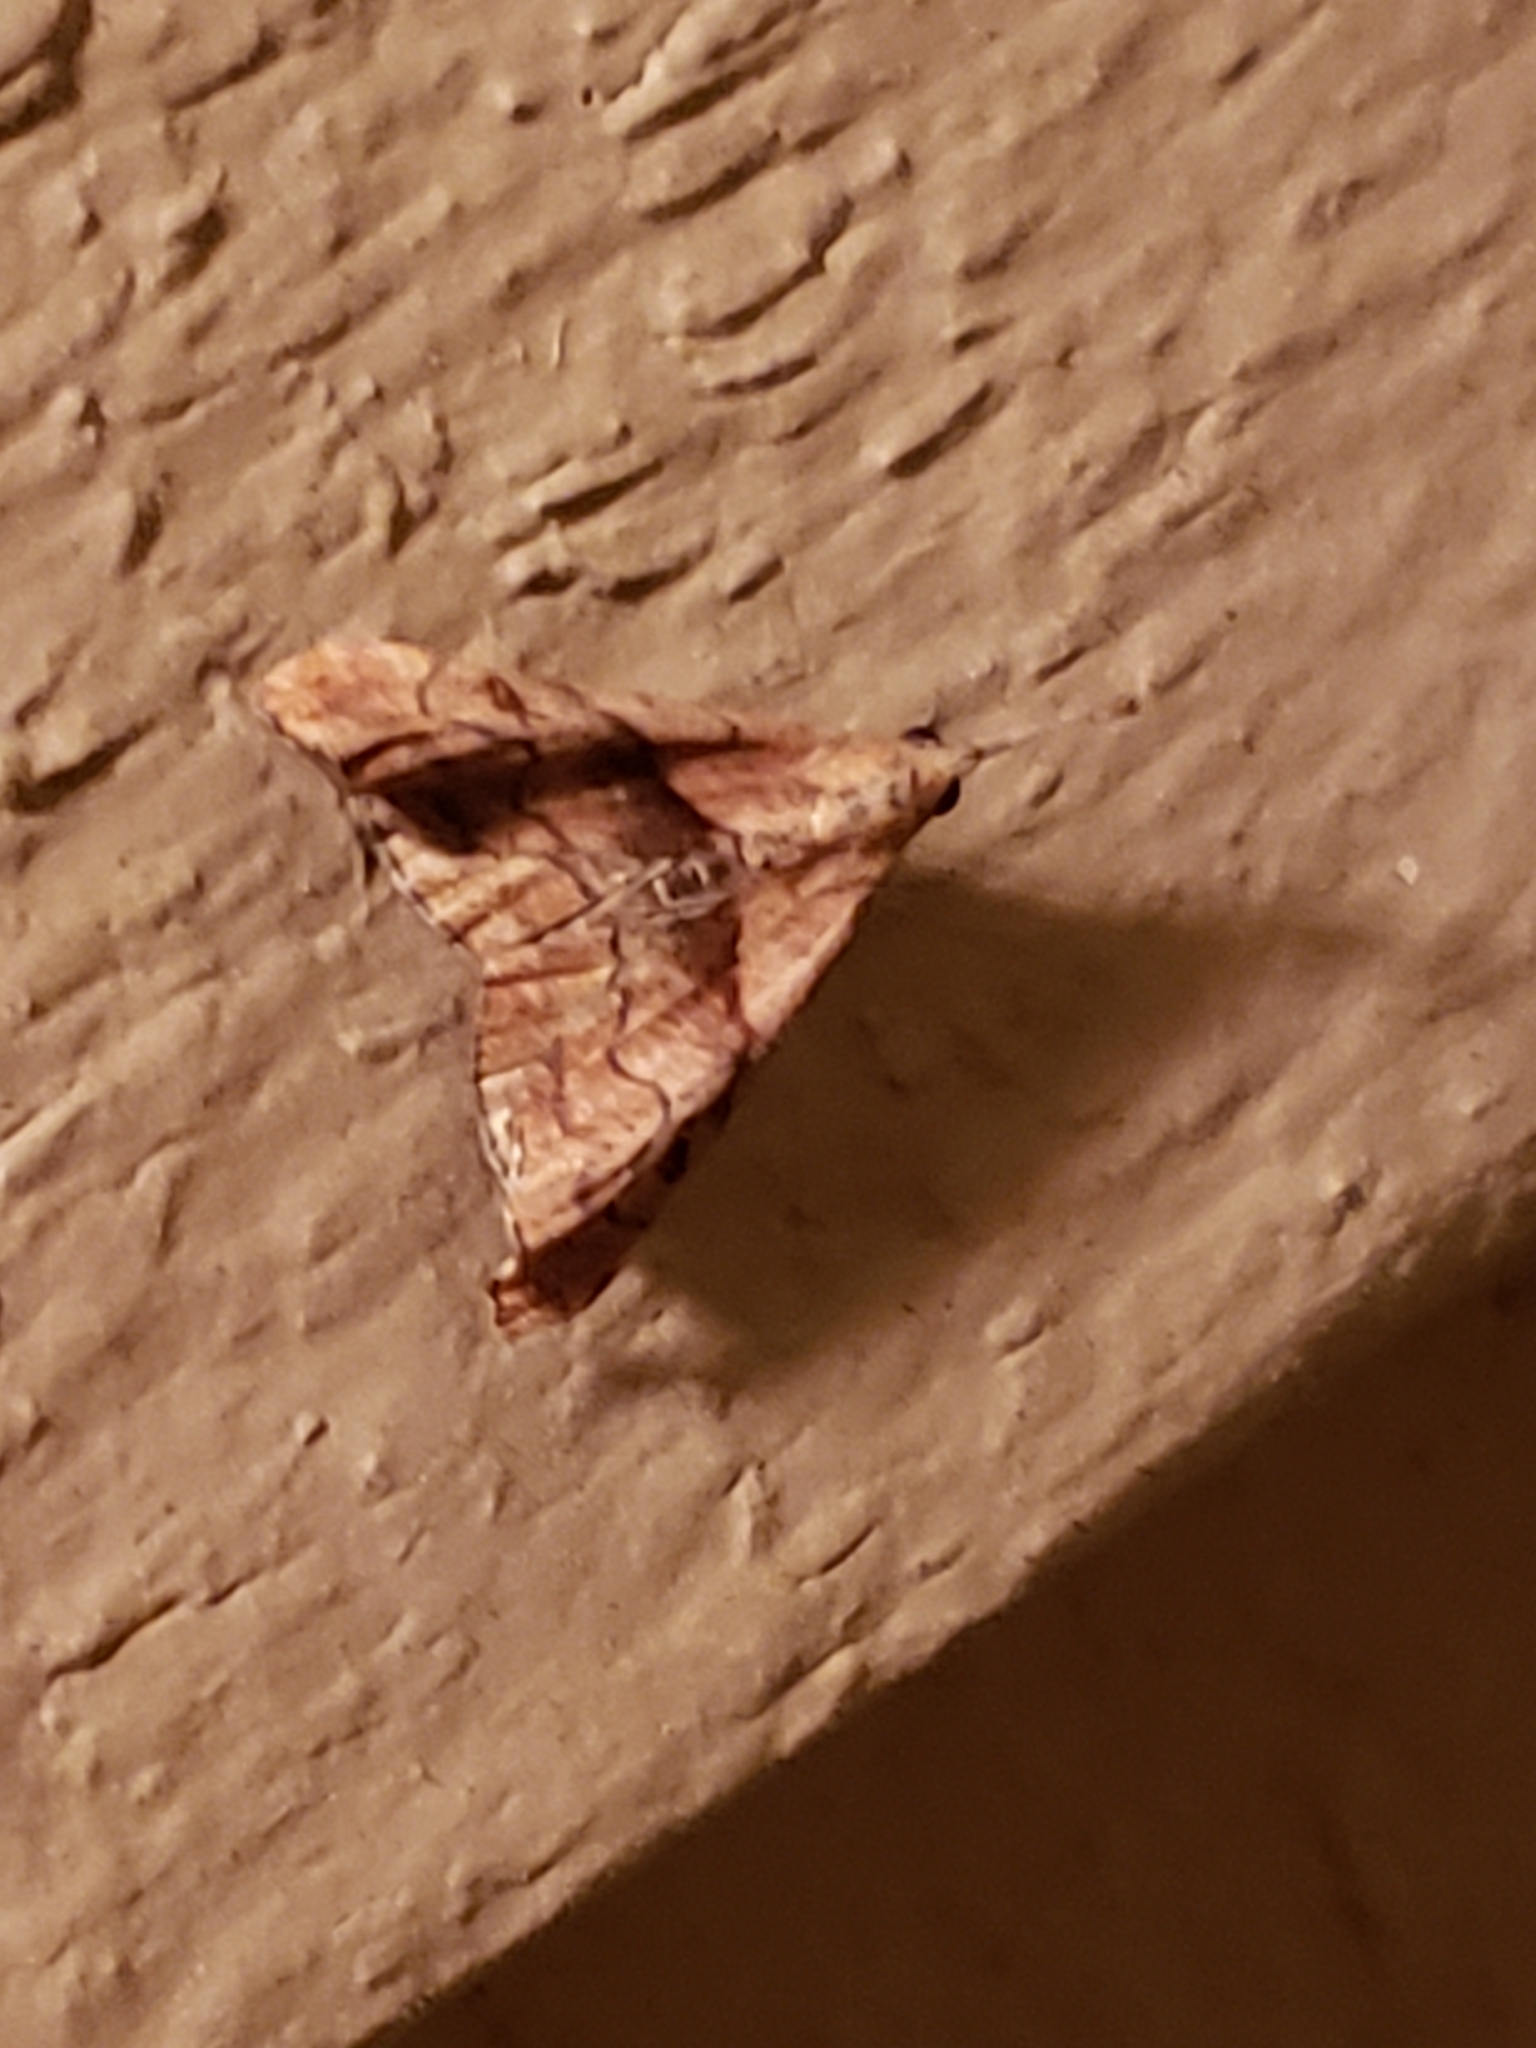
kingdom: Animalia
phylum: Arthropoda
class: Insecta
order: Lepidoptera
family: Erebidae
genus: Palthis
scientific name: Palthis angulalis
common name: Dark-spotted palthis moth
